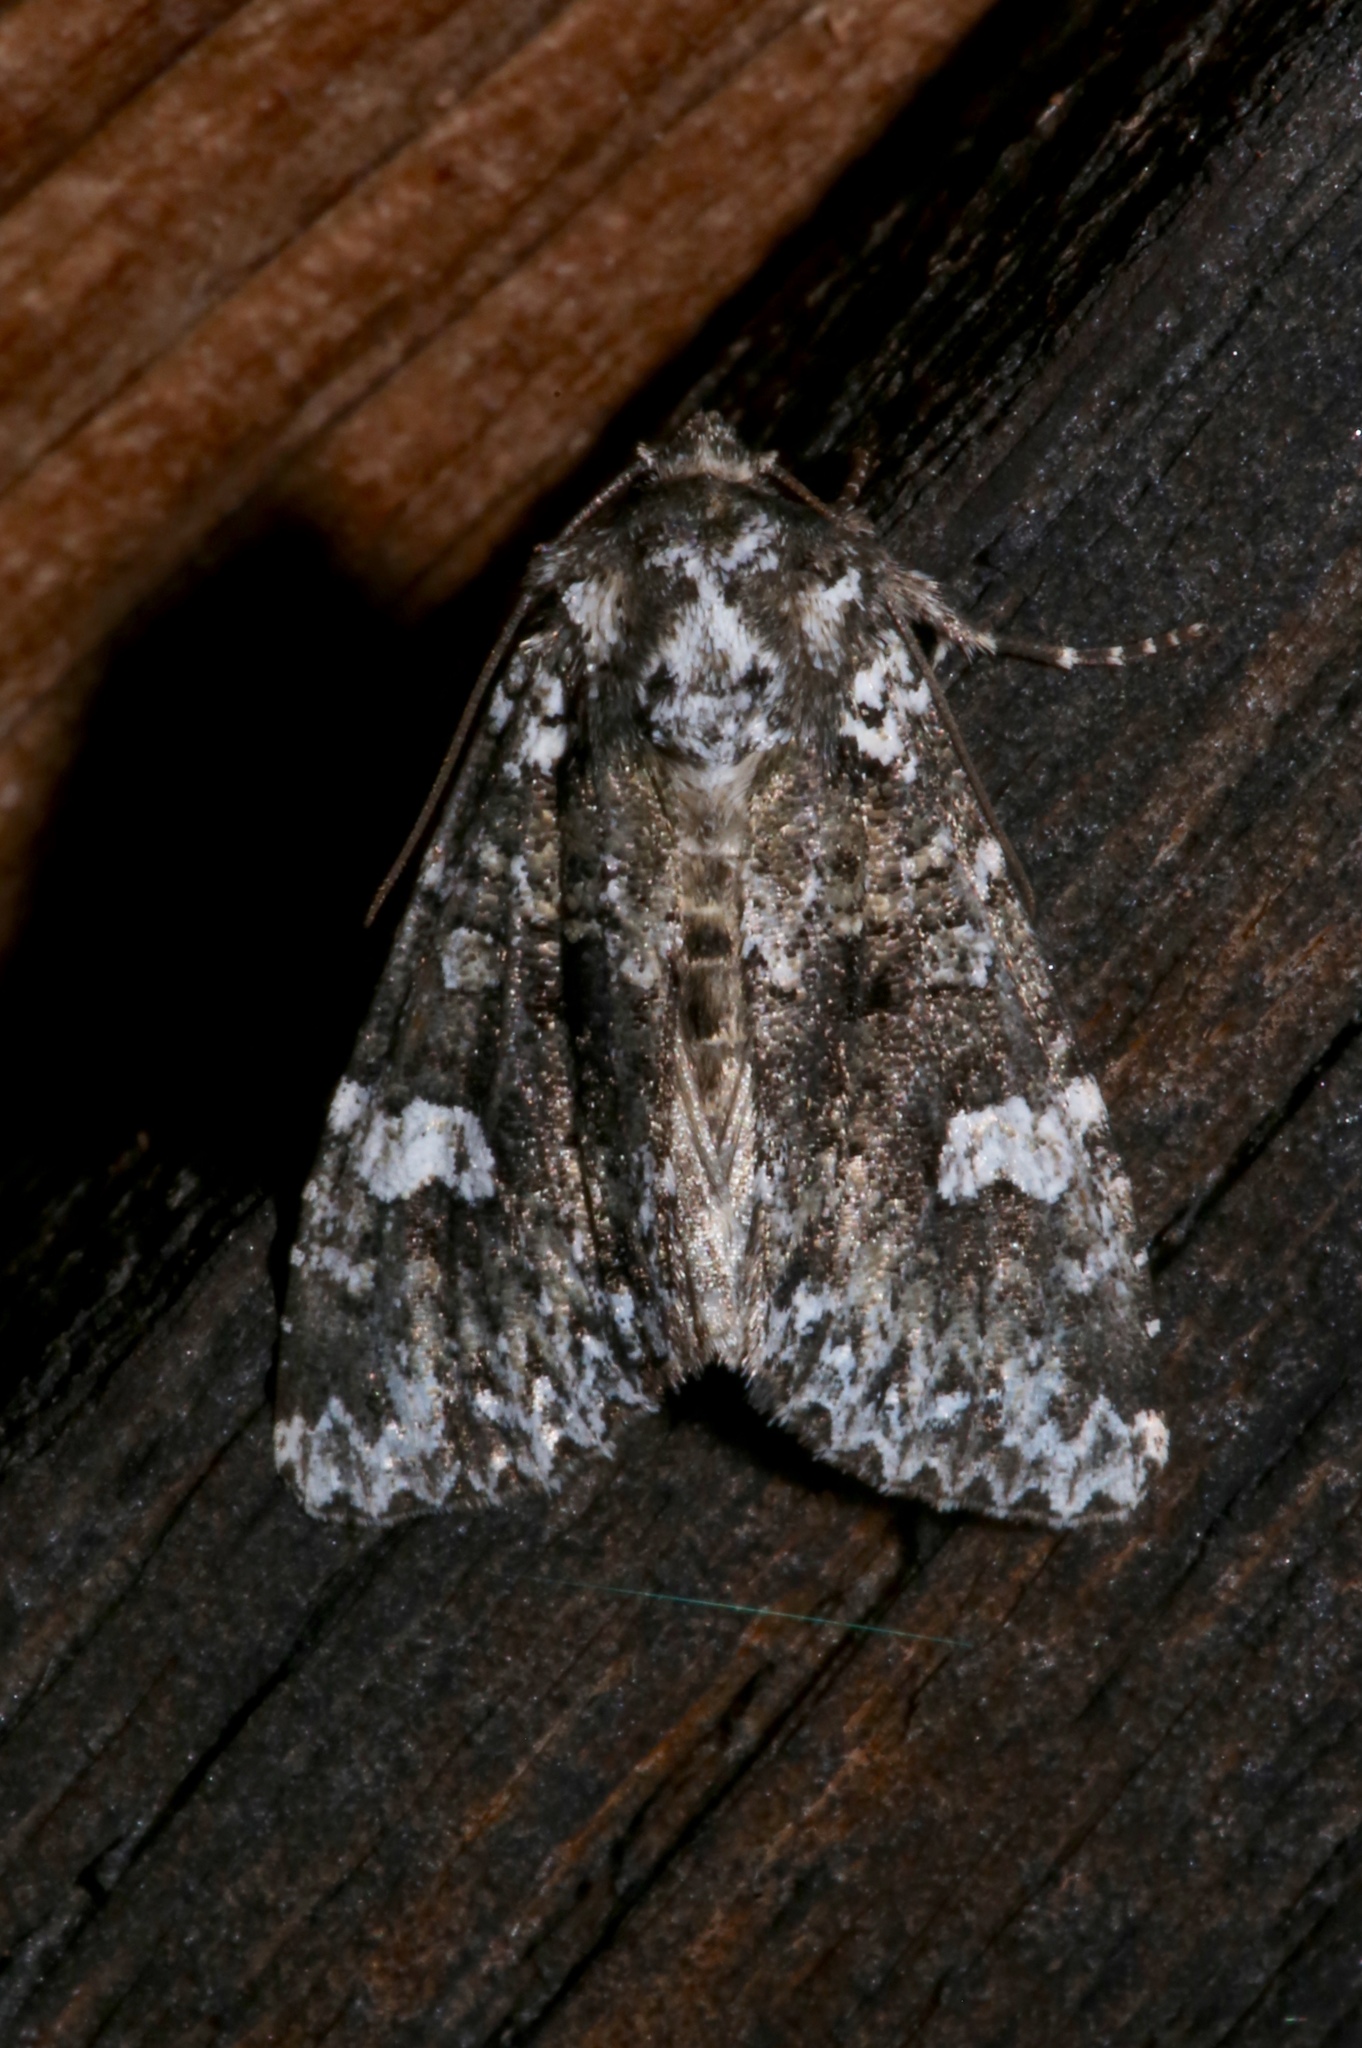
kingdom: Animalia
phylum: Arthropoda
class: Insecta
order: Lepidoptera
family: Noctuidae
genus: Melanchra
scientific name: Melanchra adjuncta
